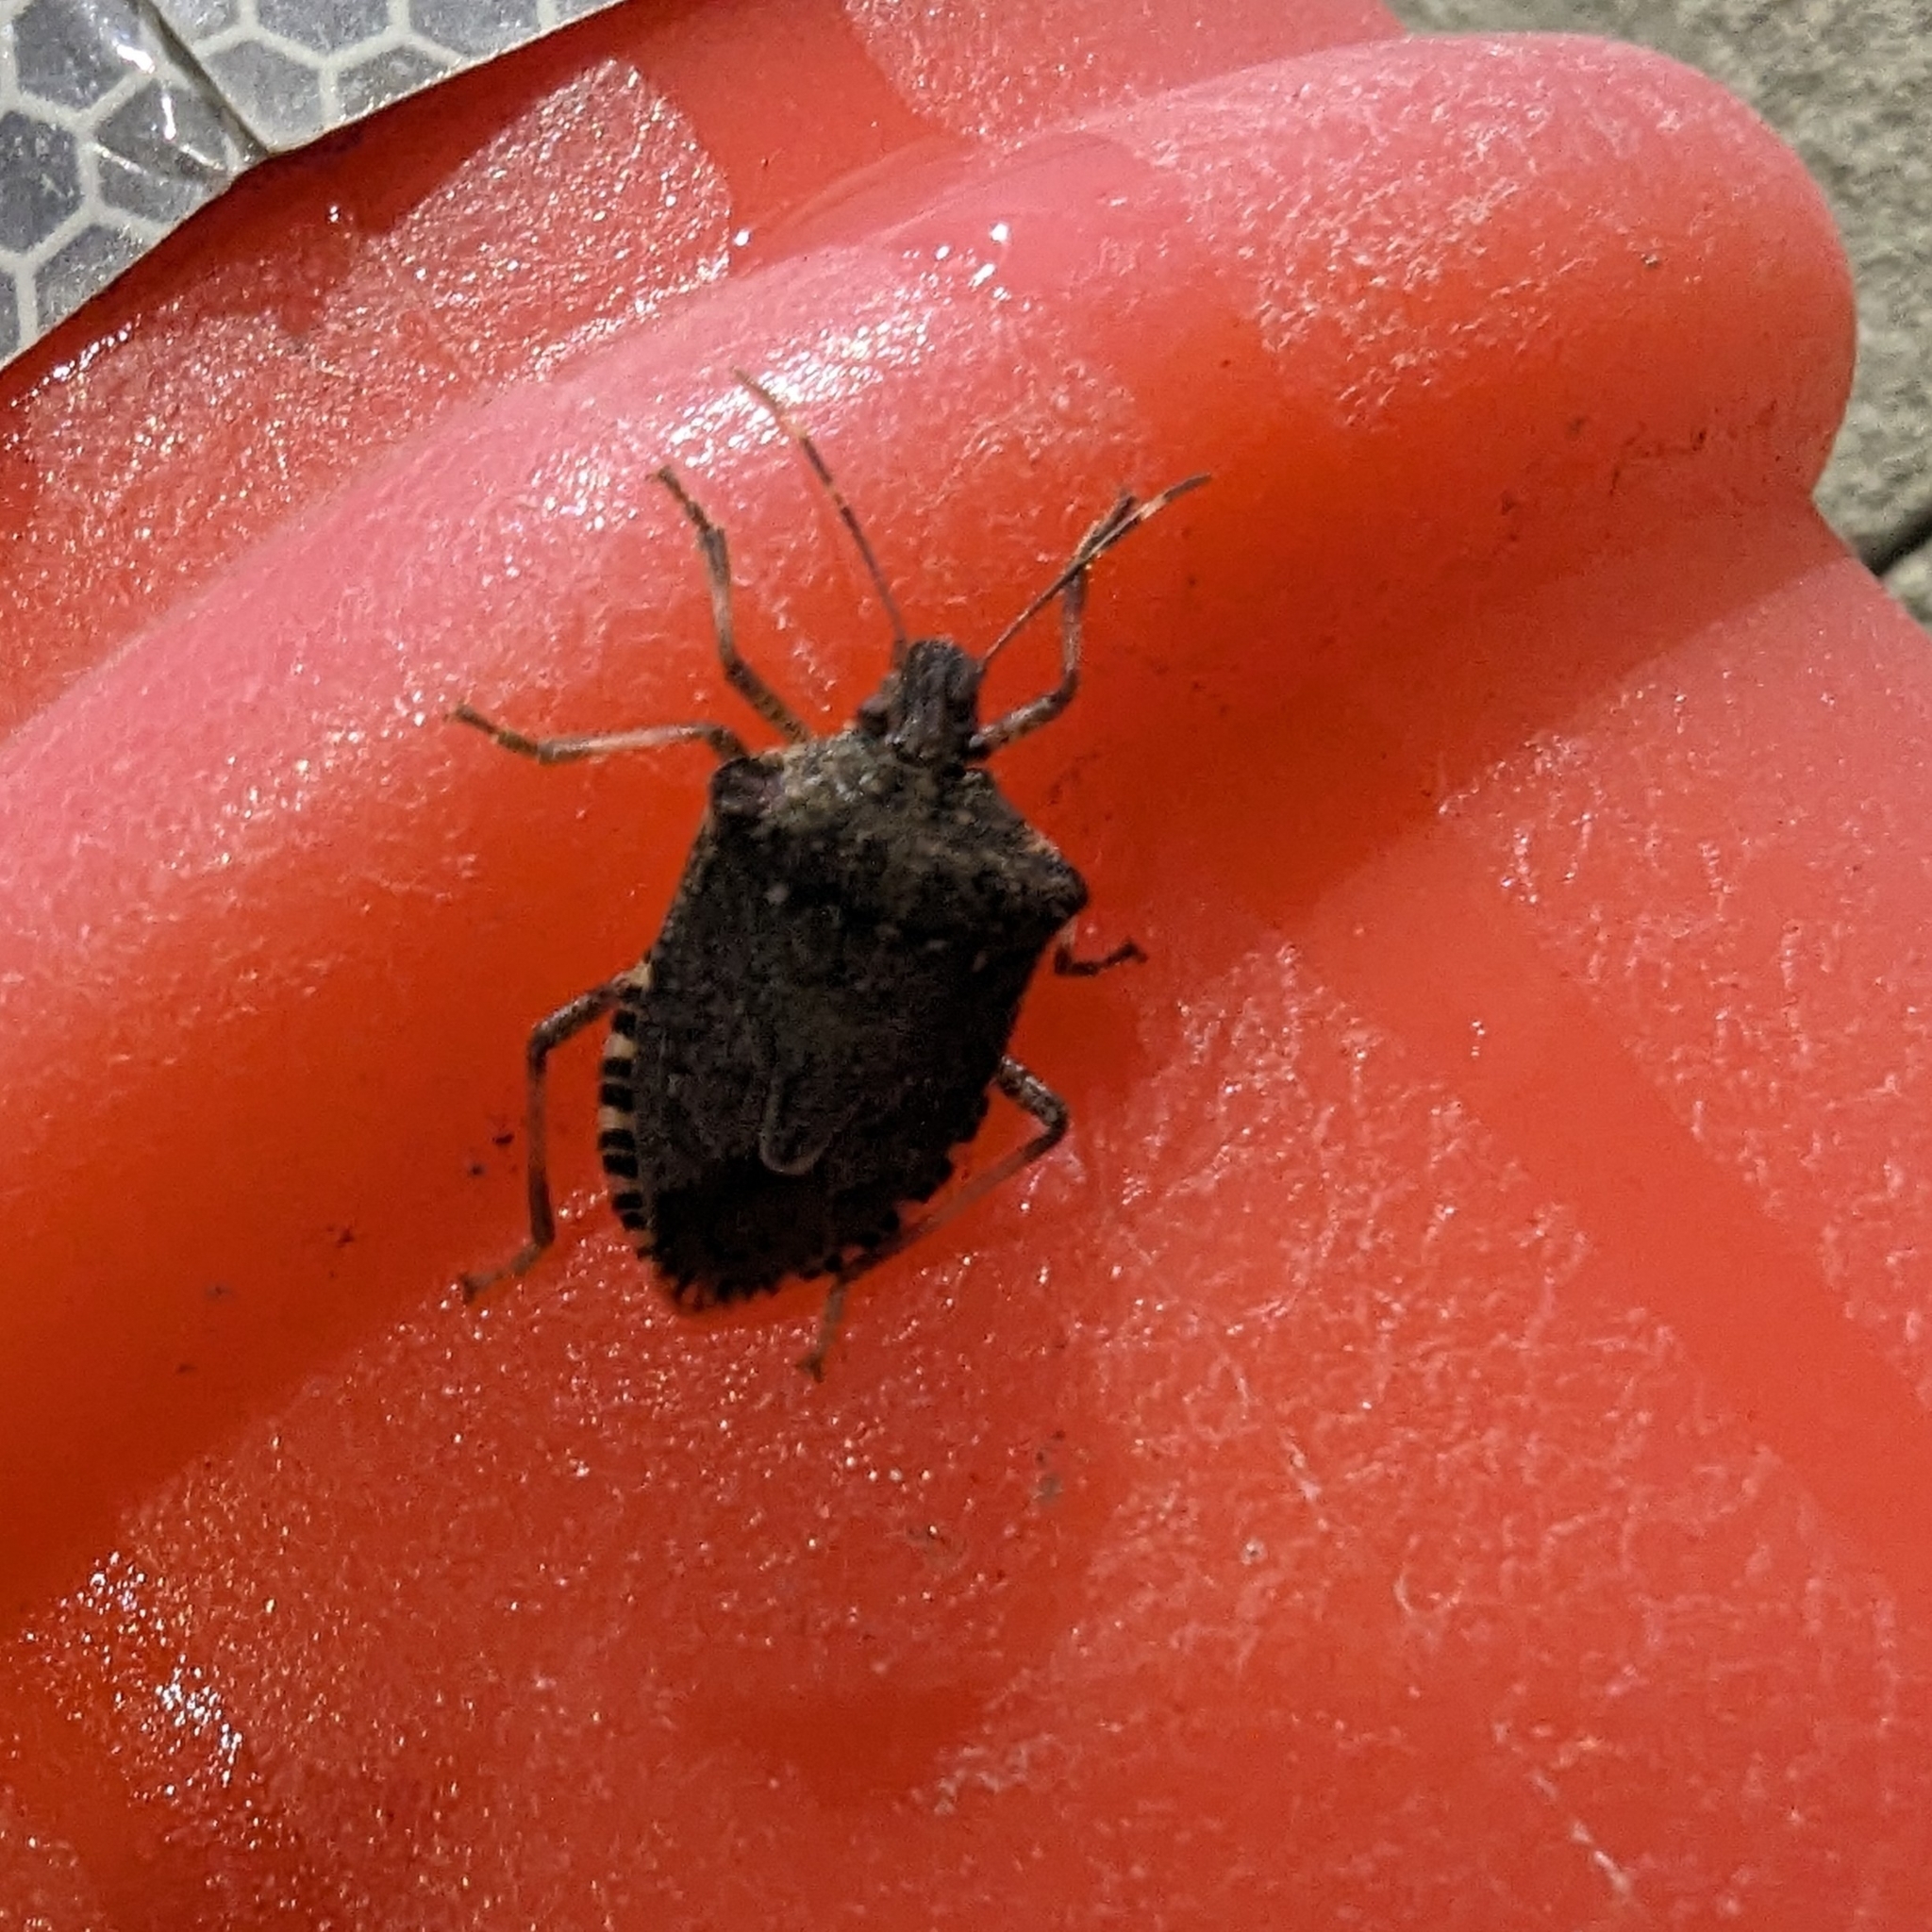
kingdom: Animalia
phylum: Arthropoda
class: Insecta
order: Hemiptera
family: Pentatomidae
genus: Halyomorpha
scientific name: Halyomorpha halys
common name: Brown marmorated stink bug
